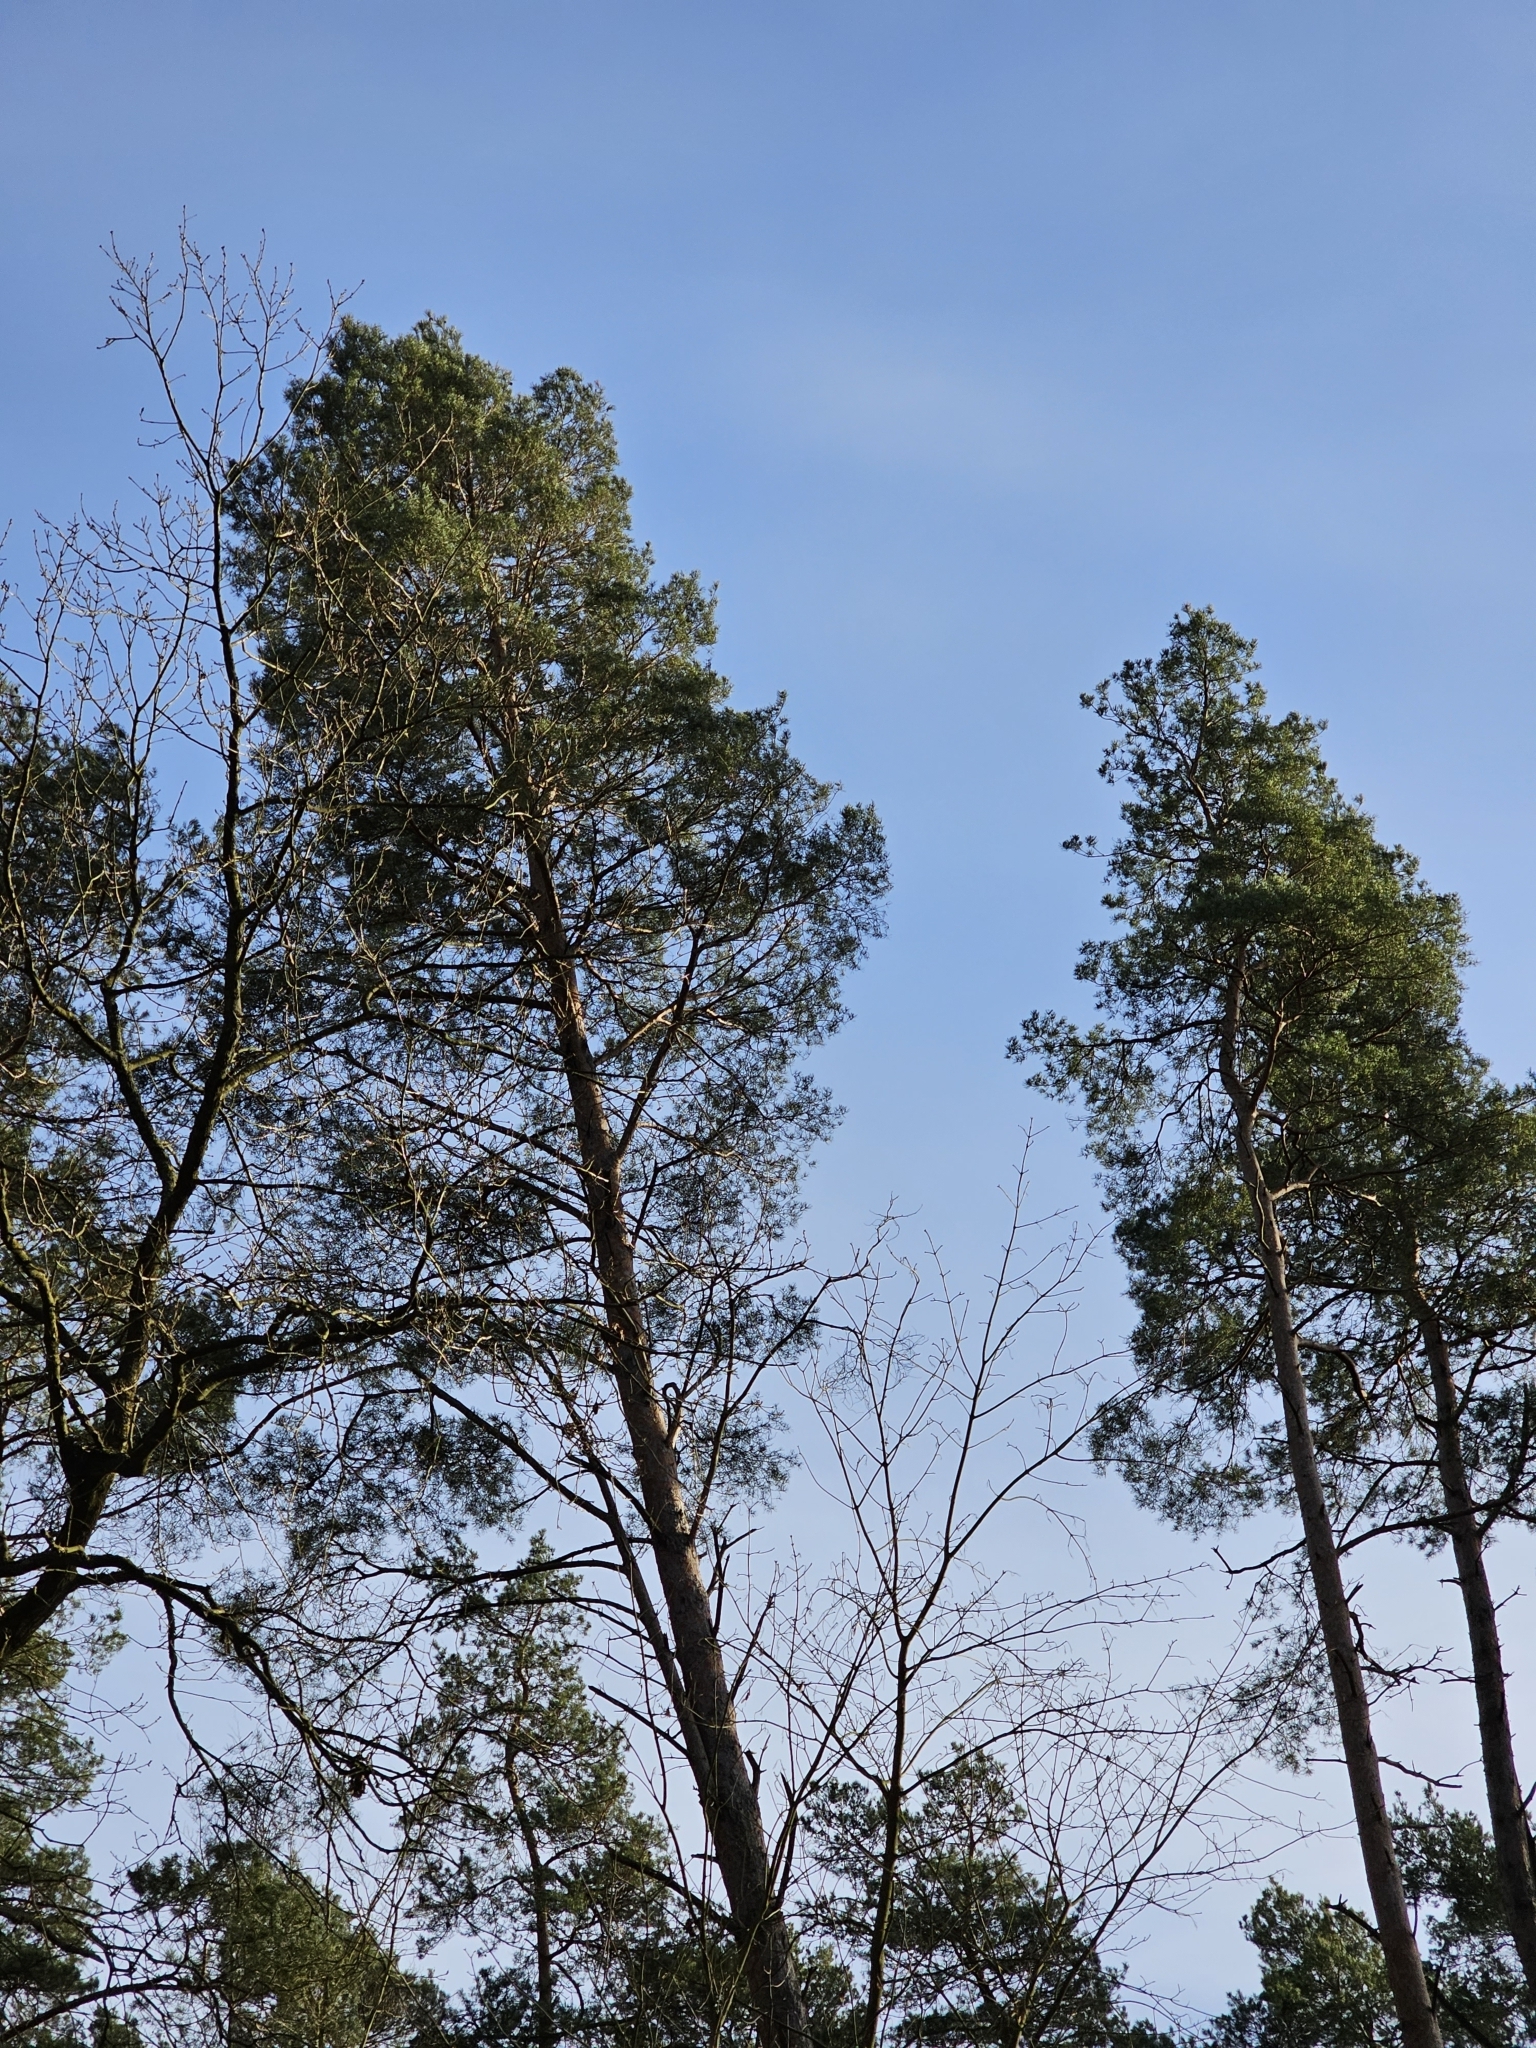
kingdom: Plantae
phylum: Tracheophyta
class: Pinopsida
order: Pinales
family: Pinaceae
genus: Pinus
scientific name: Pinus sylvestris
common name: Scots pine
